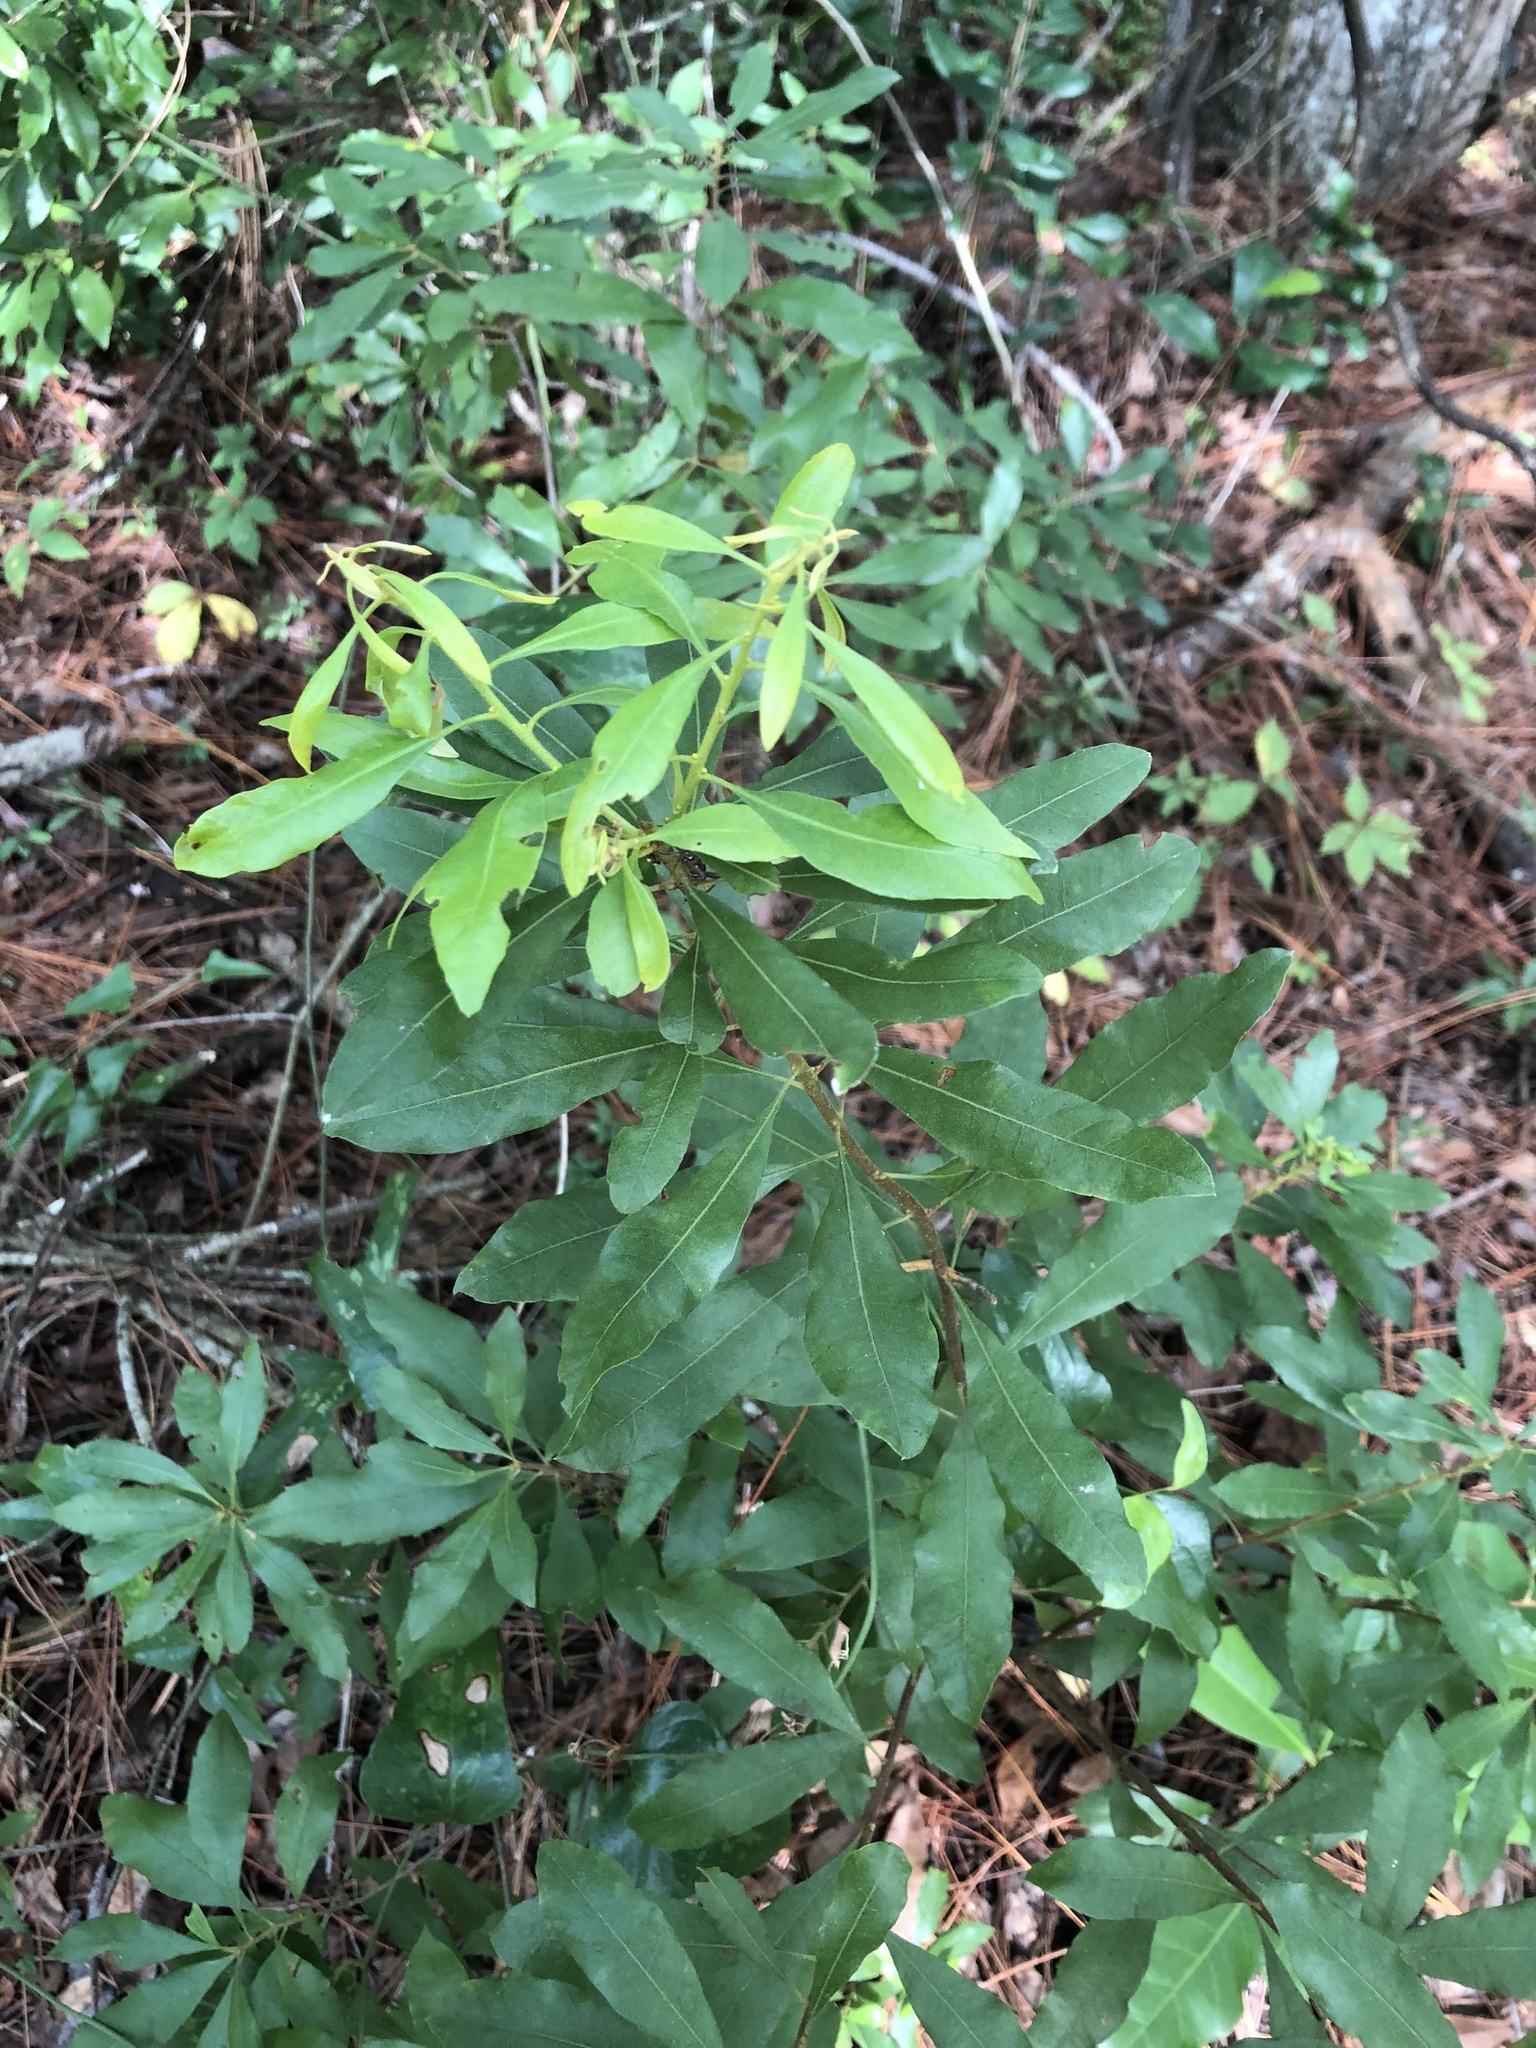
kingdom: Plantae
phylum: Tracheophyta
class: Magnoliopsida
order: Fagales
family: Myricaceae
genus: Morella
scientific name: Morella cerifera
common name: Wax myrtle
